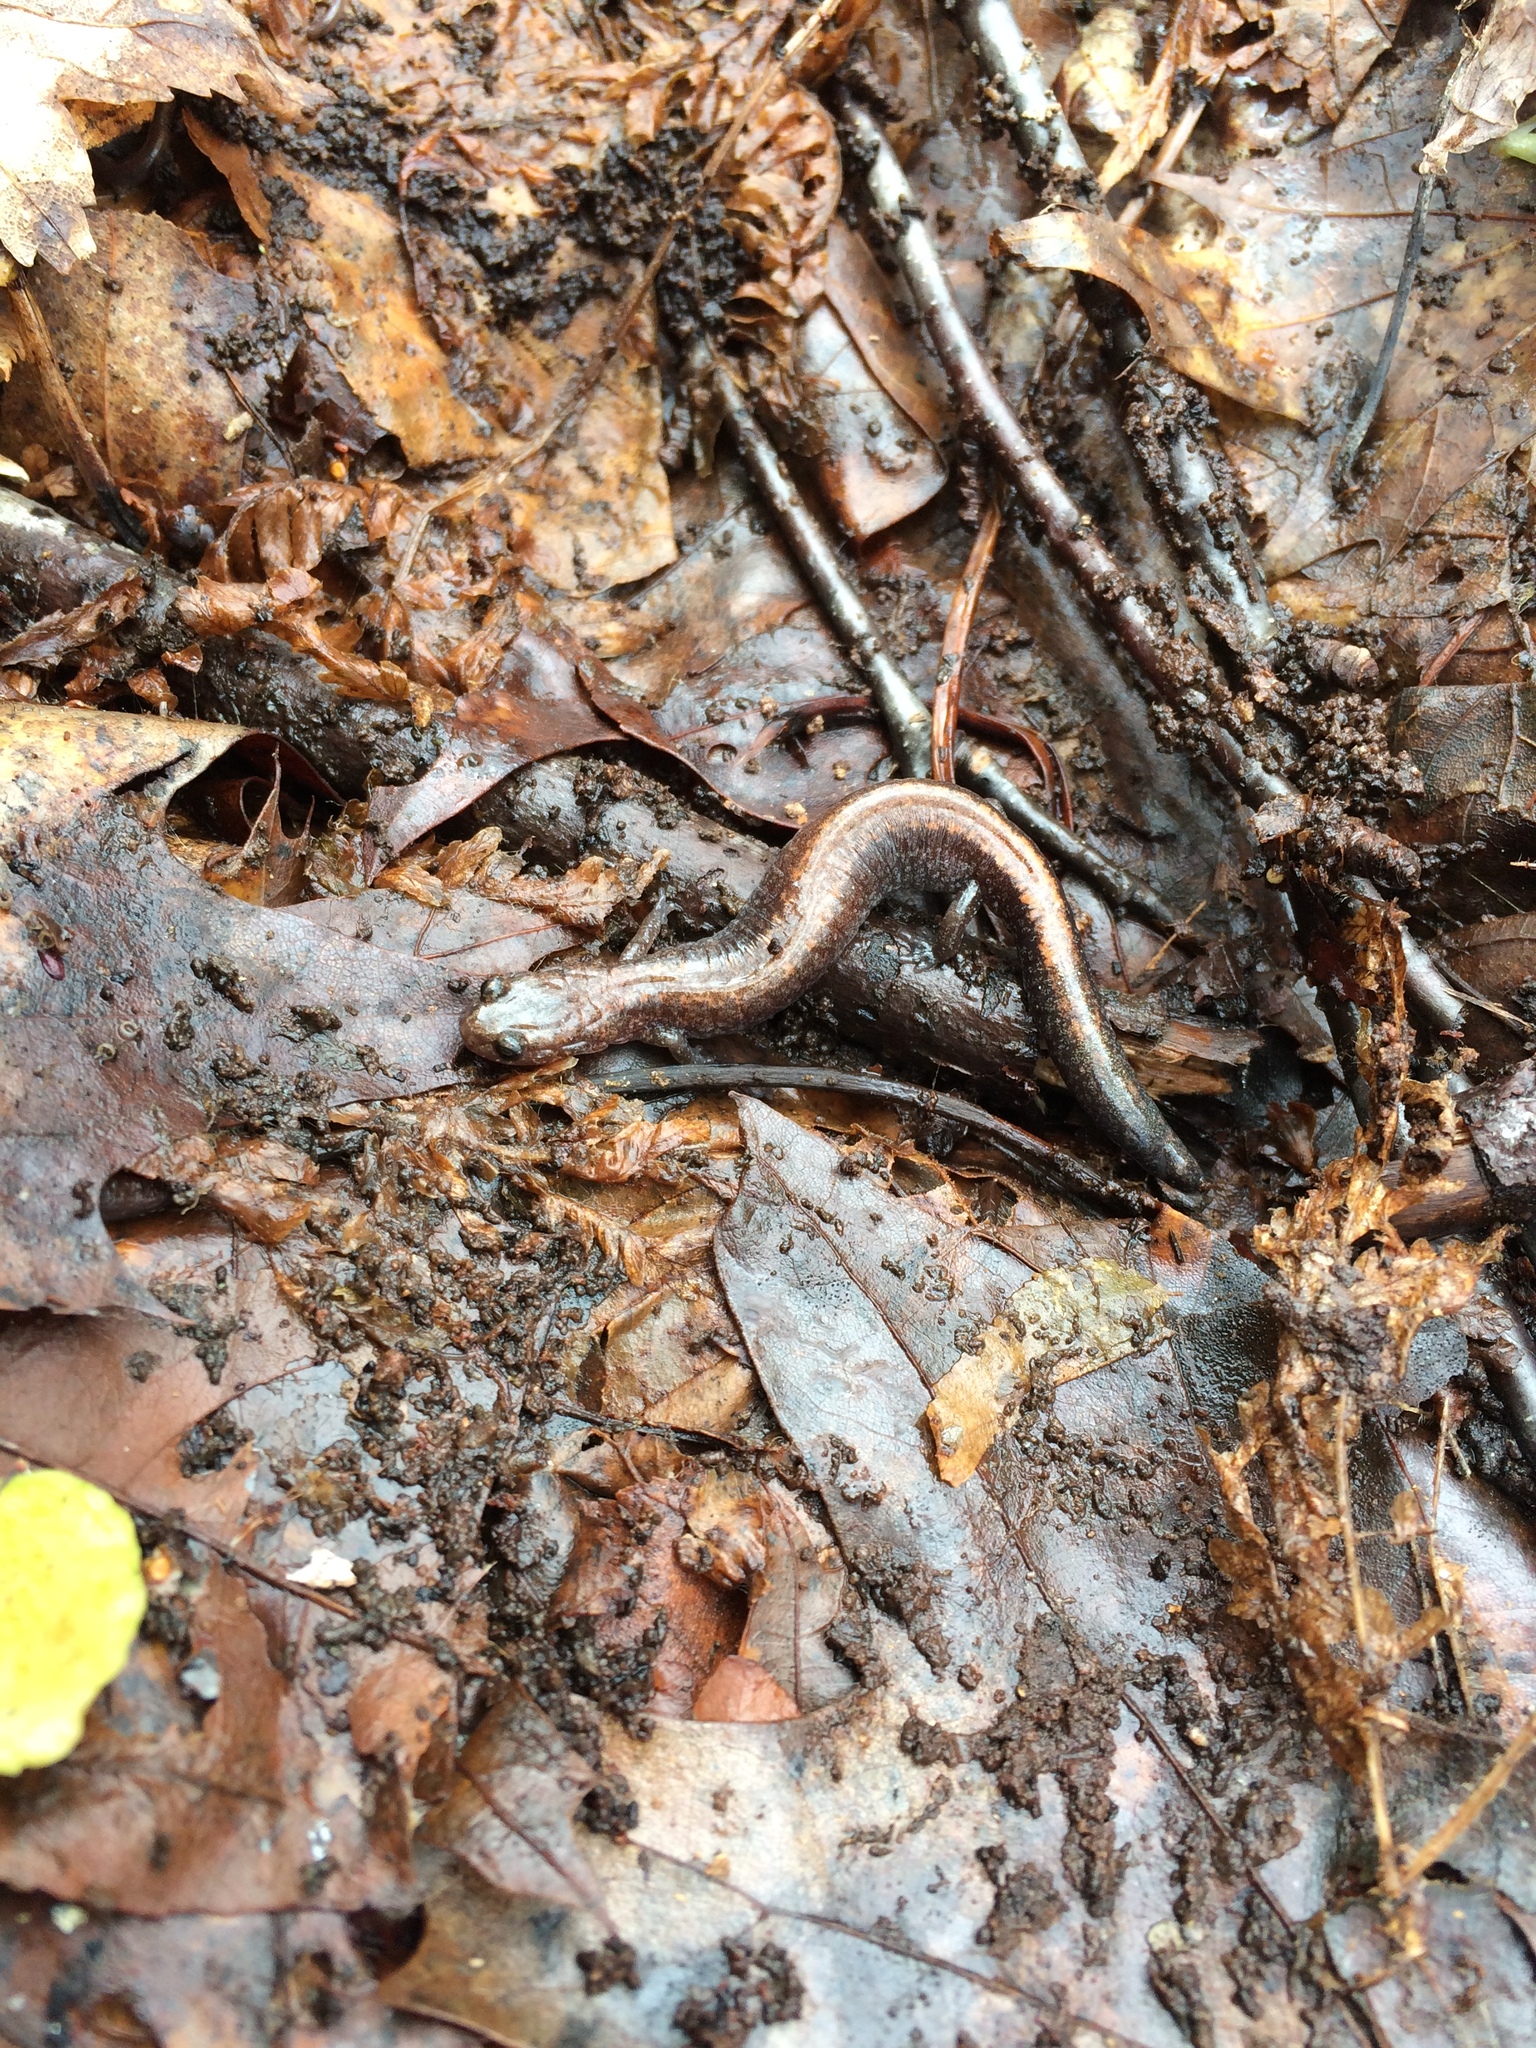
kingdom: Animalia
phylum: Chordata
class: Amphibia
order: Caudata
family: Plethodontidae
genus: Plethodon
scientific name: Plethodon cinereus
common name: Redback salamander
